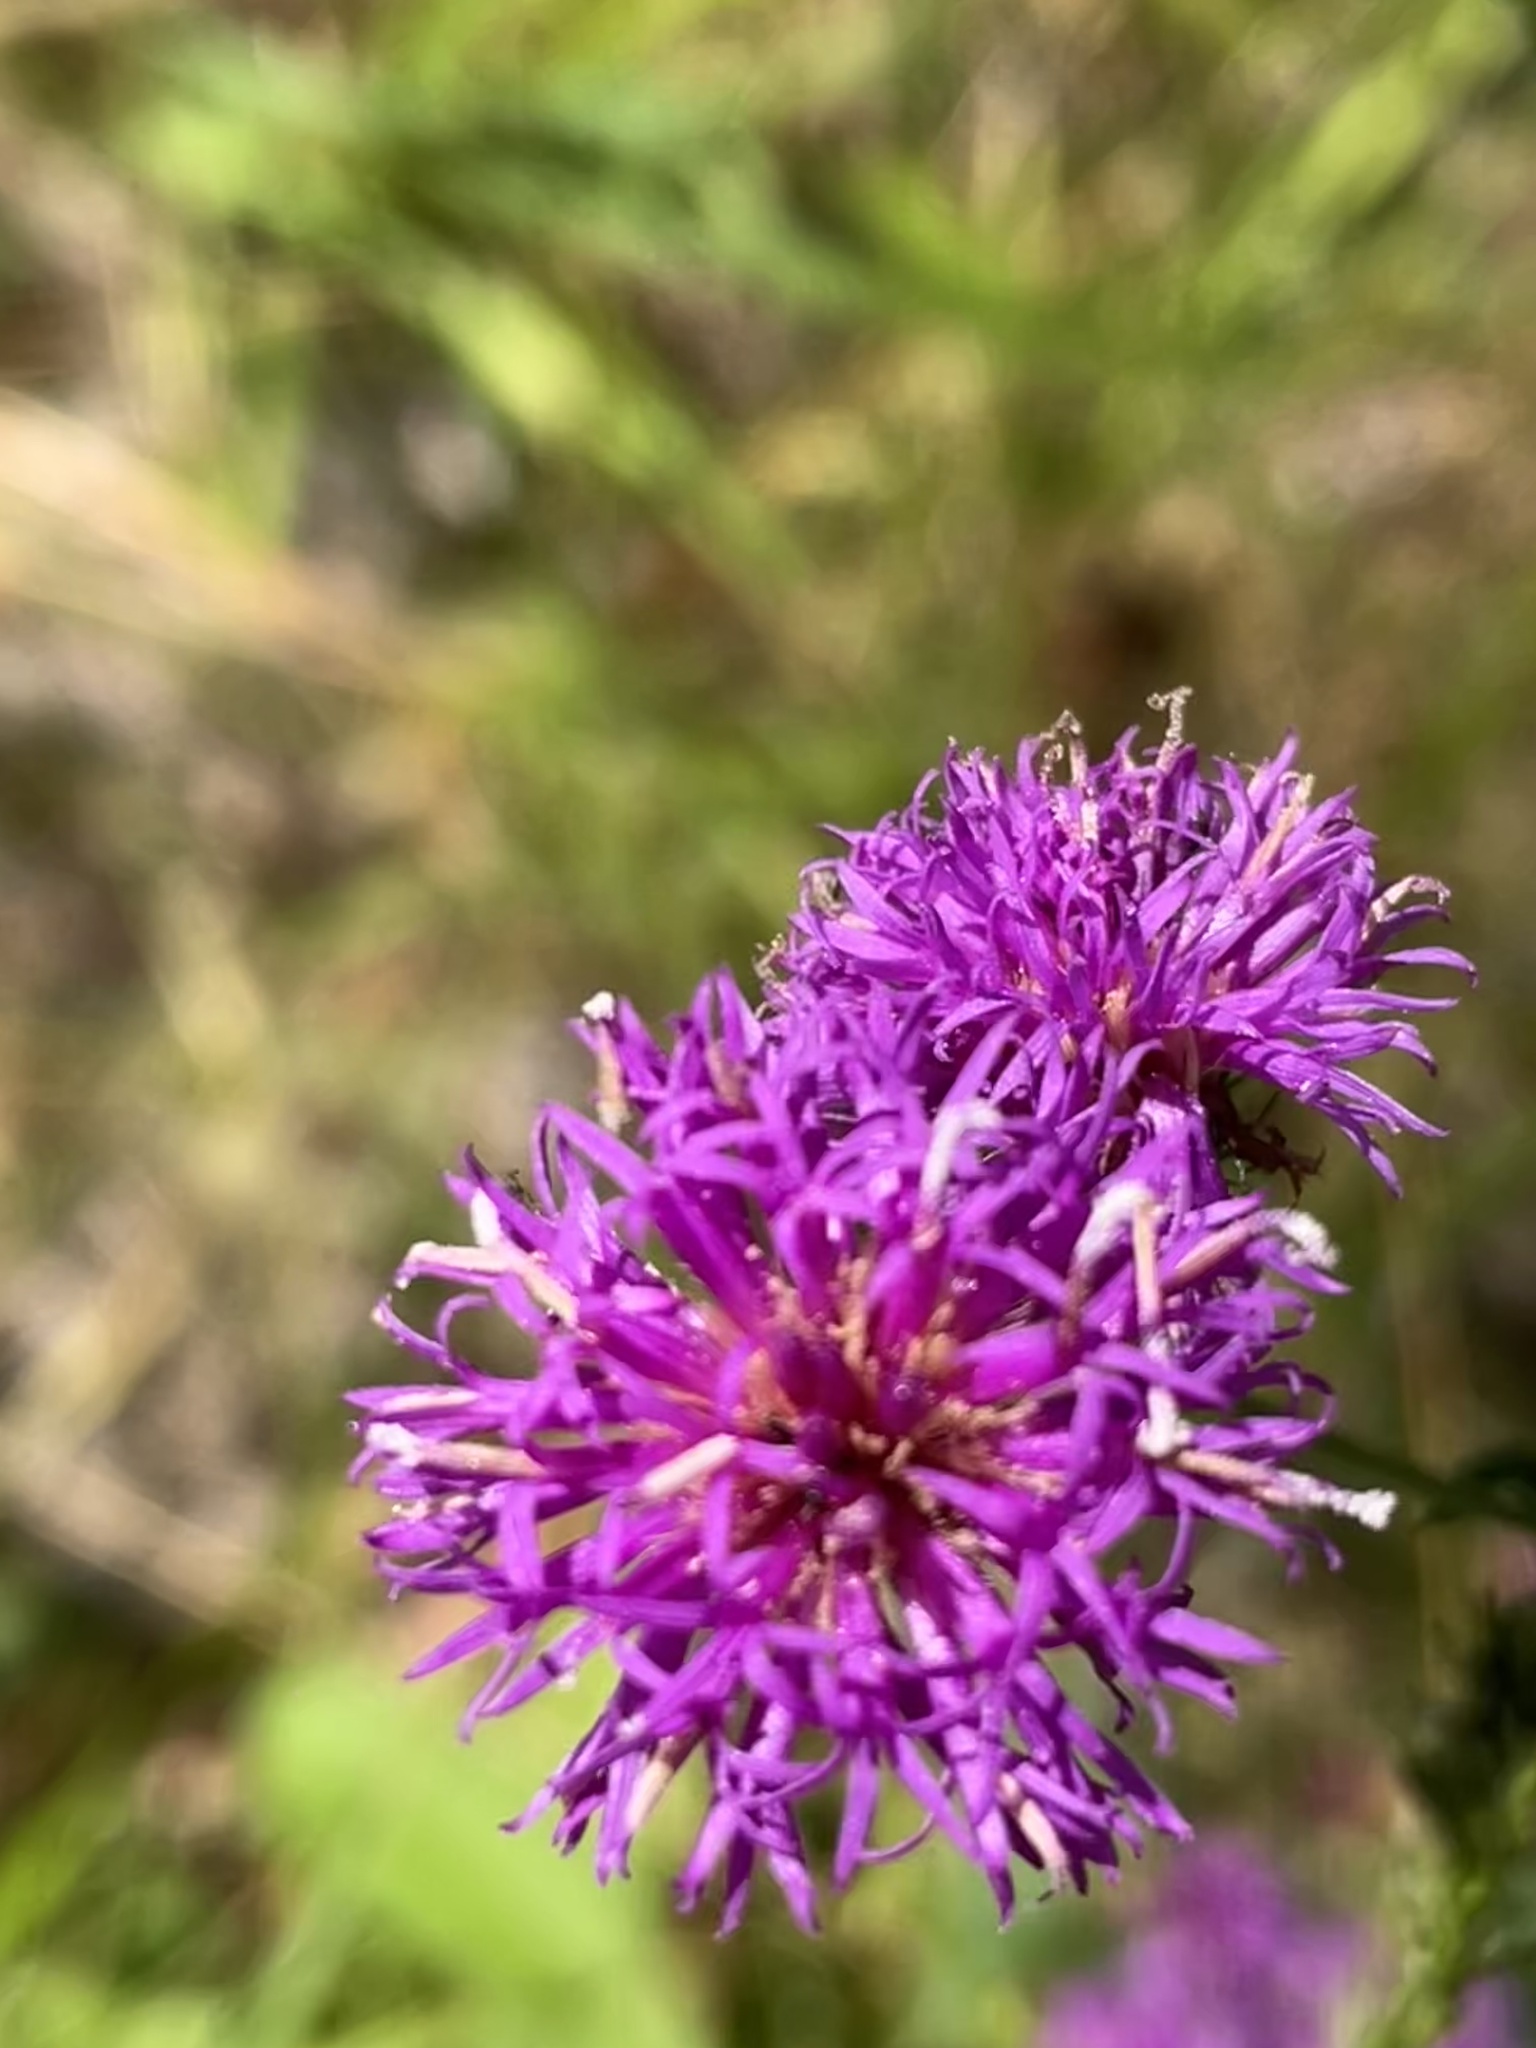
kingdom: Plantae
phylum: Tracheophyta
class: Magnoliopsida
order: Asterales
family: Asteraceae
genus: Vernonia
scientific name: Vernonia acaulis
